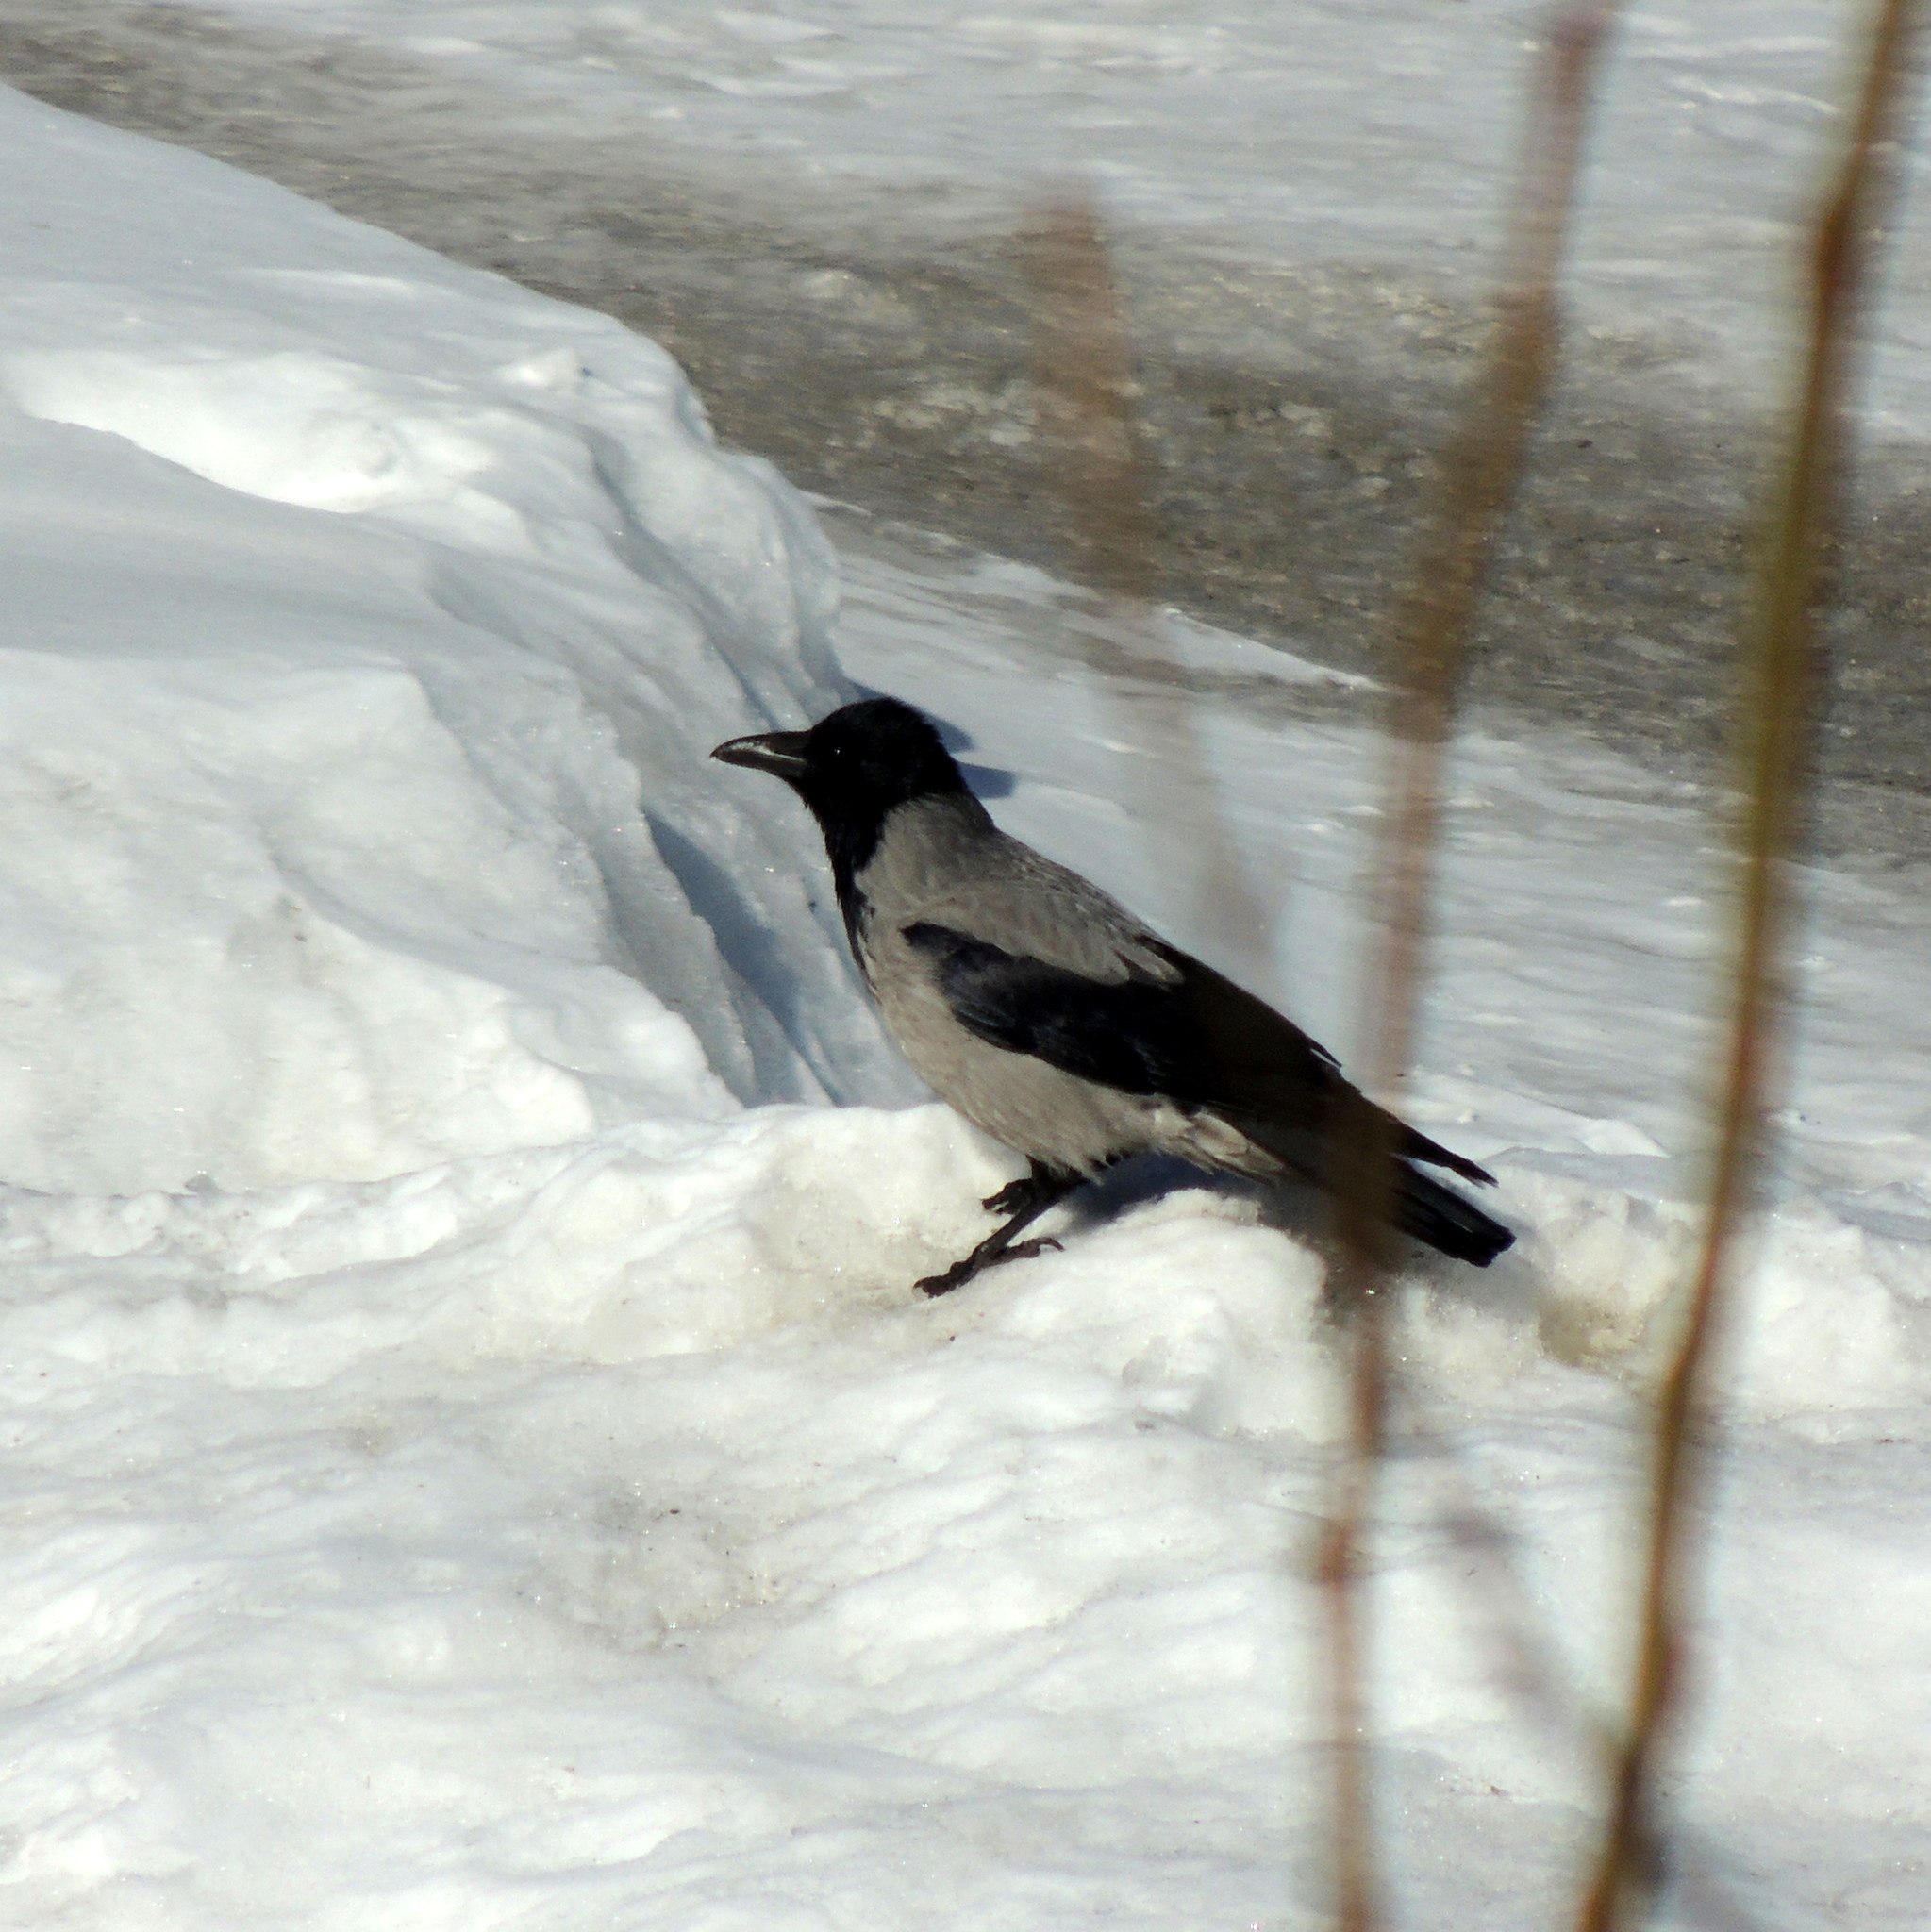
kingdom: Animalia
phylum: Chordata
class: Aves
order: Passeriformes
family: Corvidae
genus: Corvus
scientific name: Corvus cornix
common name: Hooded crow
